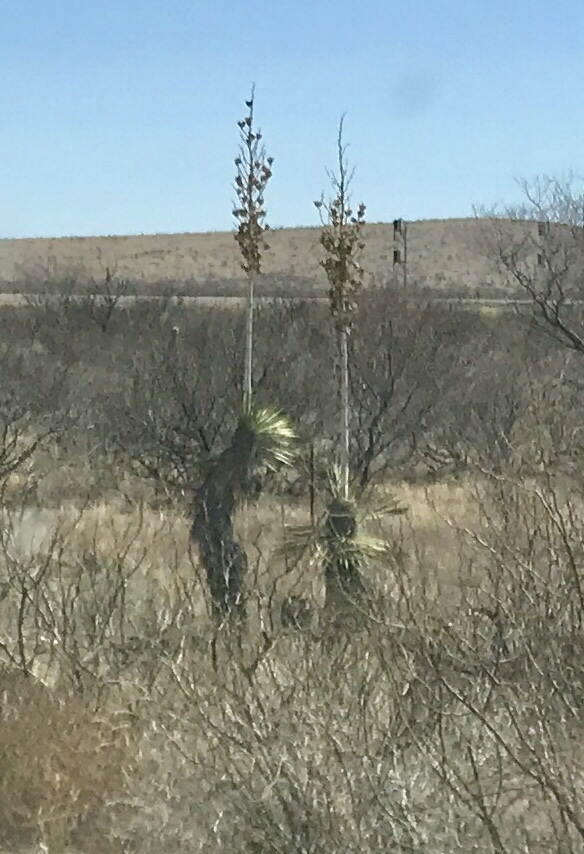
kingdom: Plantae
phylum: Tracheophyta
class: Liliopsida
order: Asparagales
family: Asparagaceae
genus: Yucca
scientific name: Yucca elata
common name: Palmella
